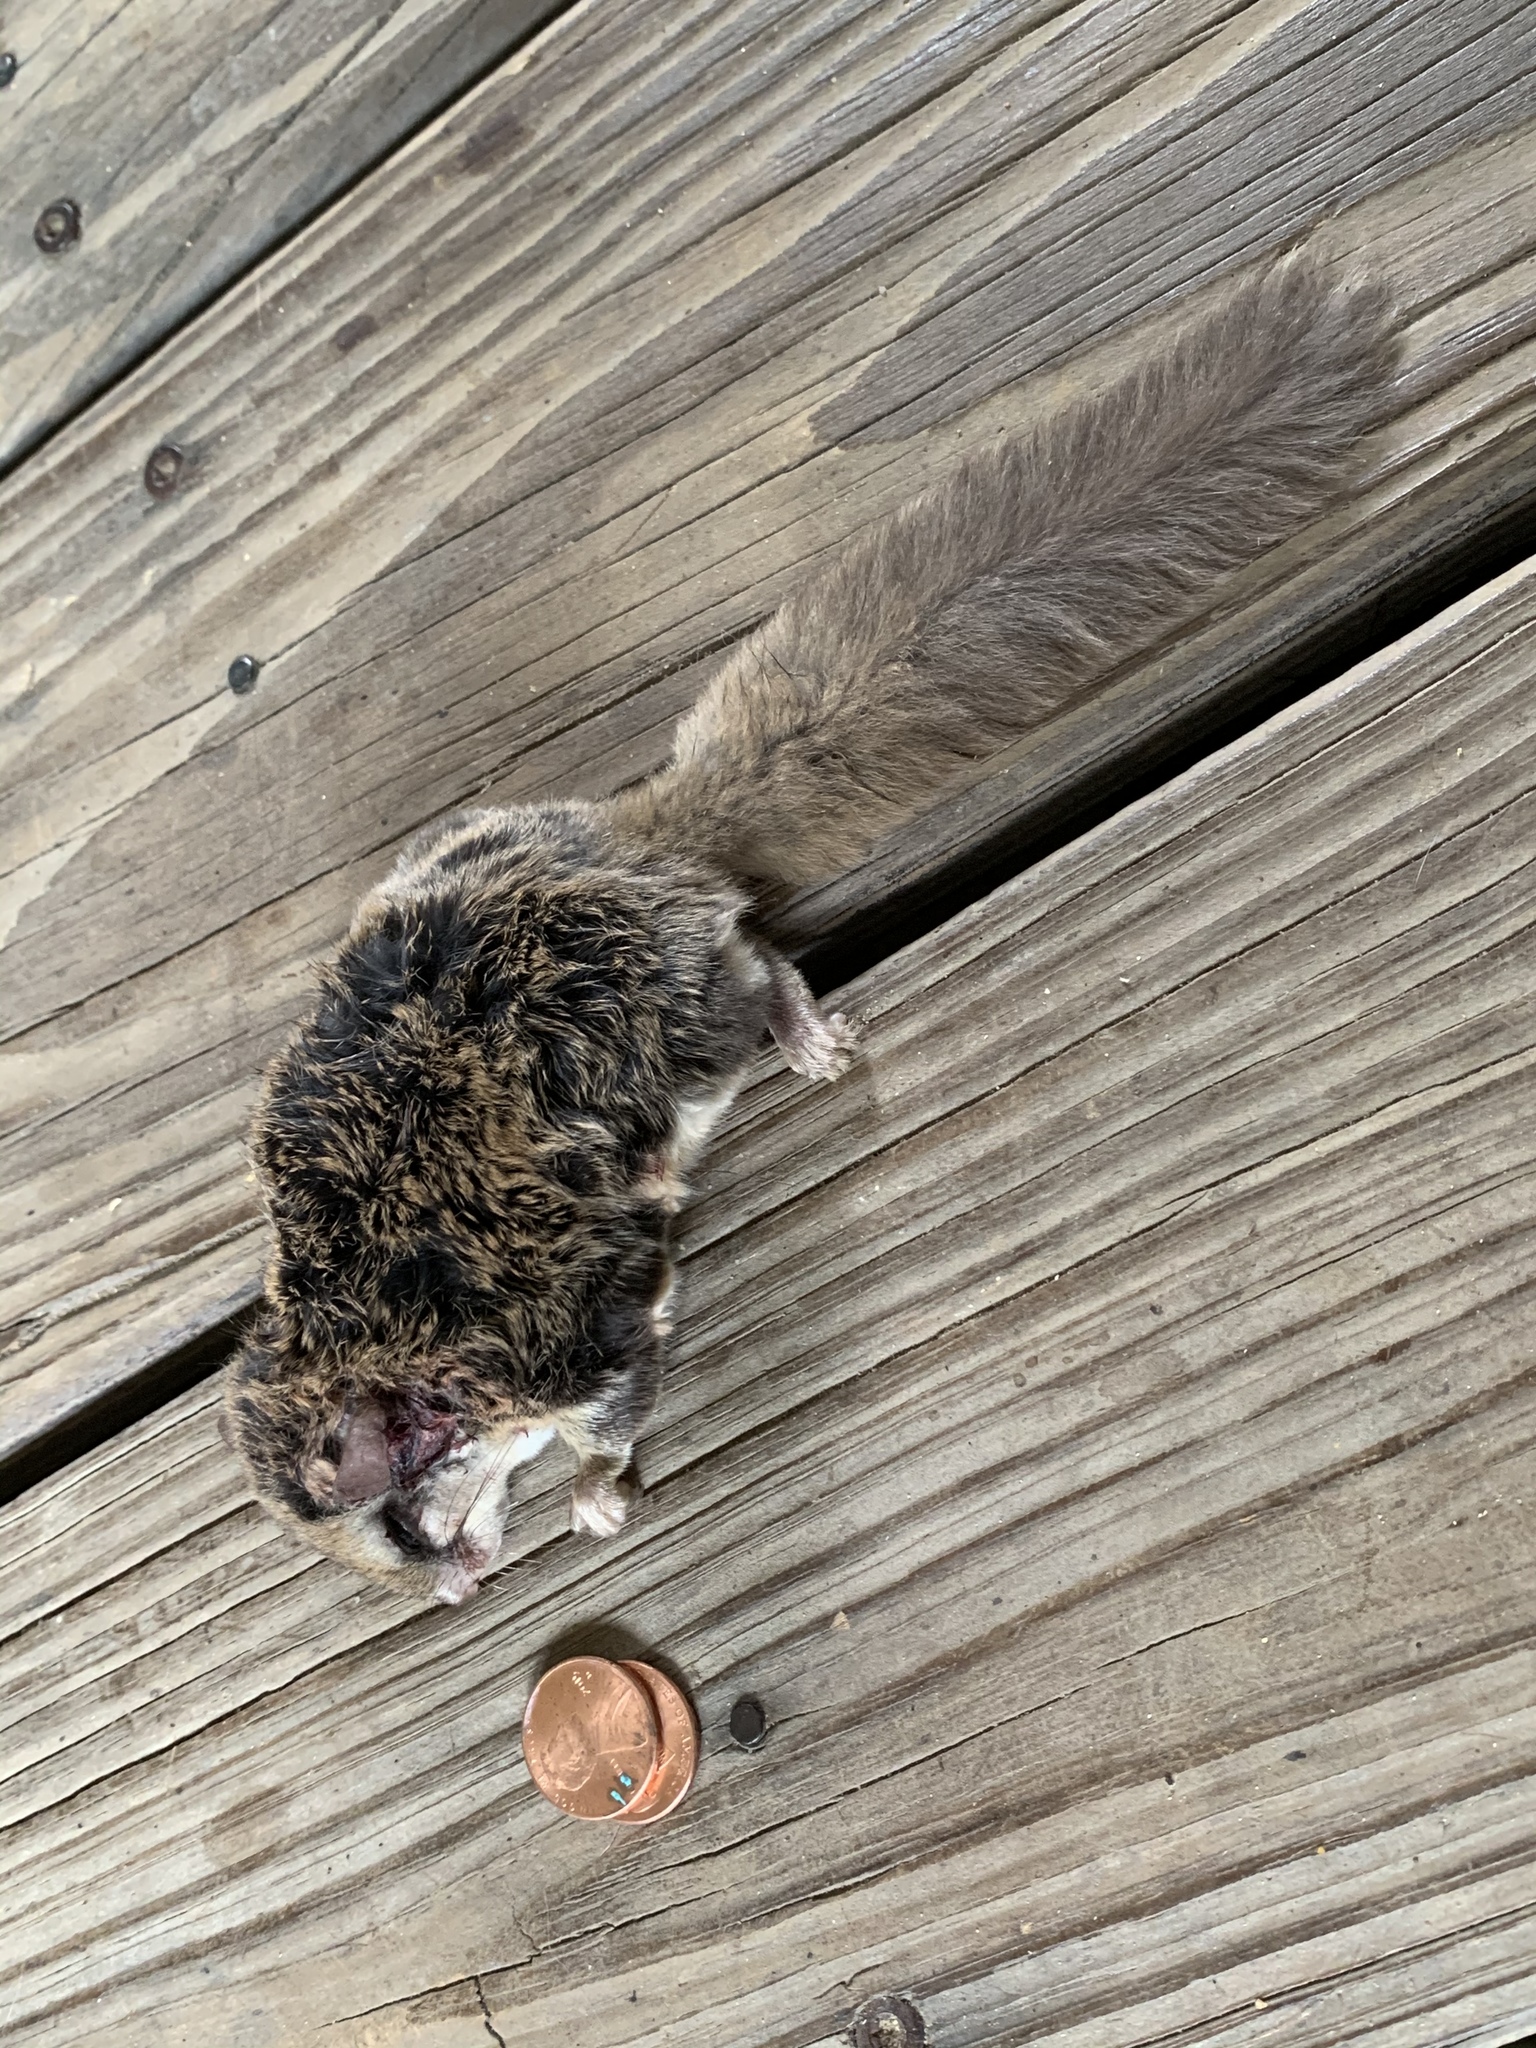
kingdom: Animalia
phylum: Chordata
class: Mammalia
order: Rodentia
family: Sciuridae
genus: Glaucomys
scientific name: Glaucomys volans
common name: Southern flying squirrel
